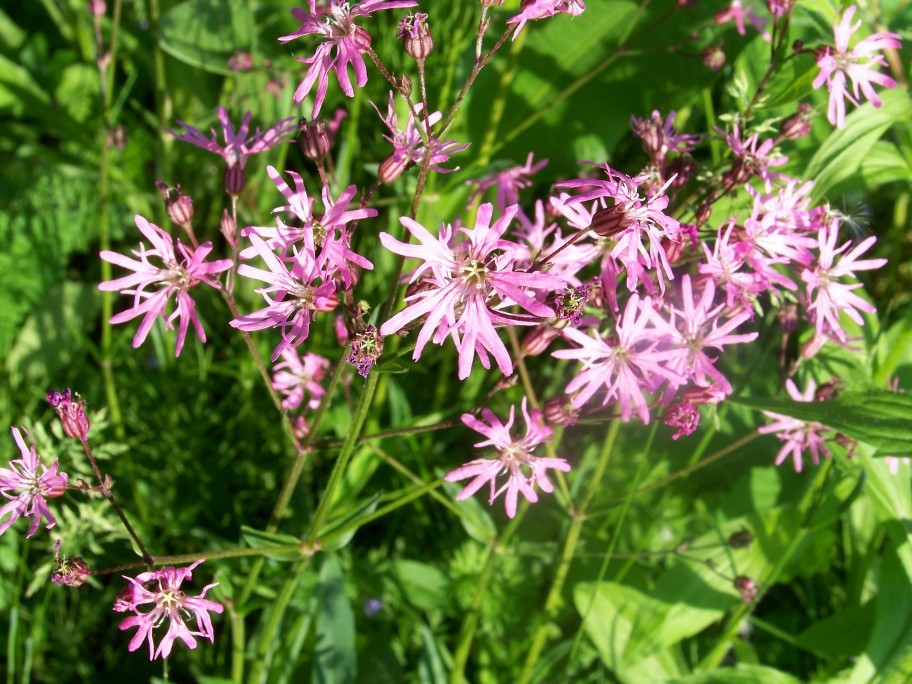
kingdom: Plantae
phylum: Tracheophyta
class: Magnoliopsida
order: Caryophyllales
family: Caryophyllaceae
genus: Silene
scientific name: Silene flos-cuculi
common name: Ragged-robin
